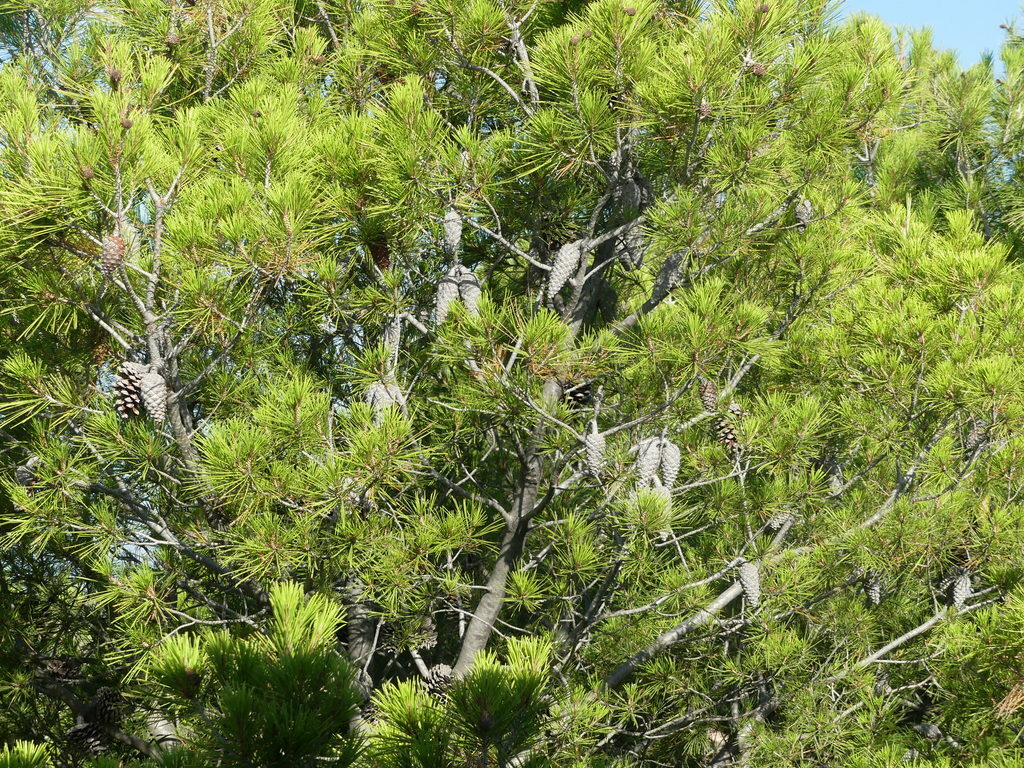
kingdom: Plantae
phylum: Tracheophyta
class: Pinopsida
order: Pinales
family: Pinaceae
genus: Pinus
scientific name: Pinus halepensis
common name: Aleppo pine
